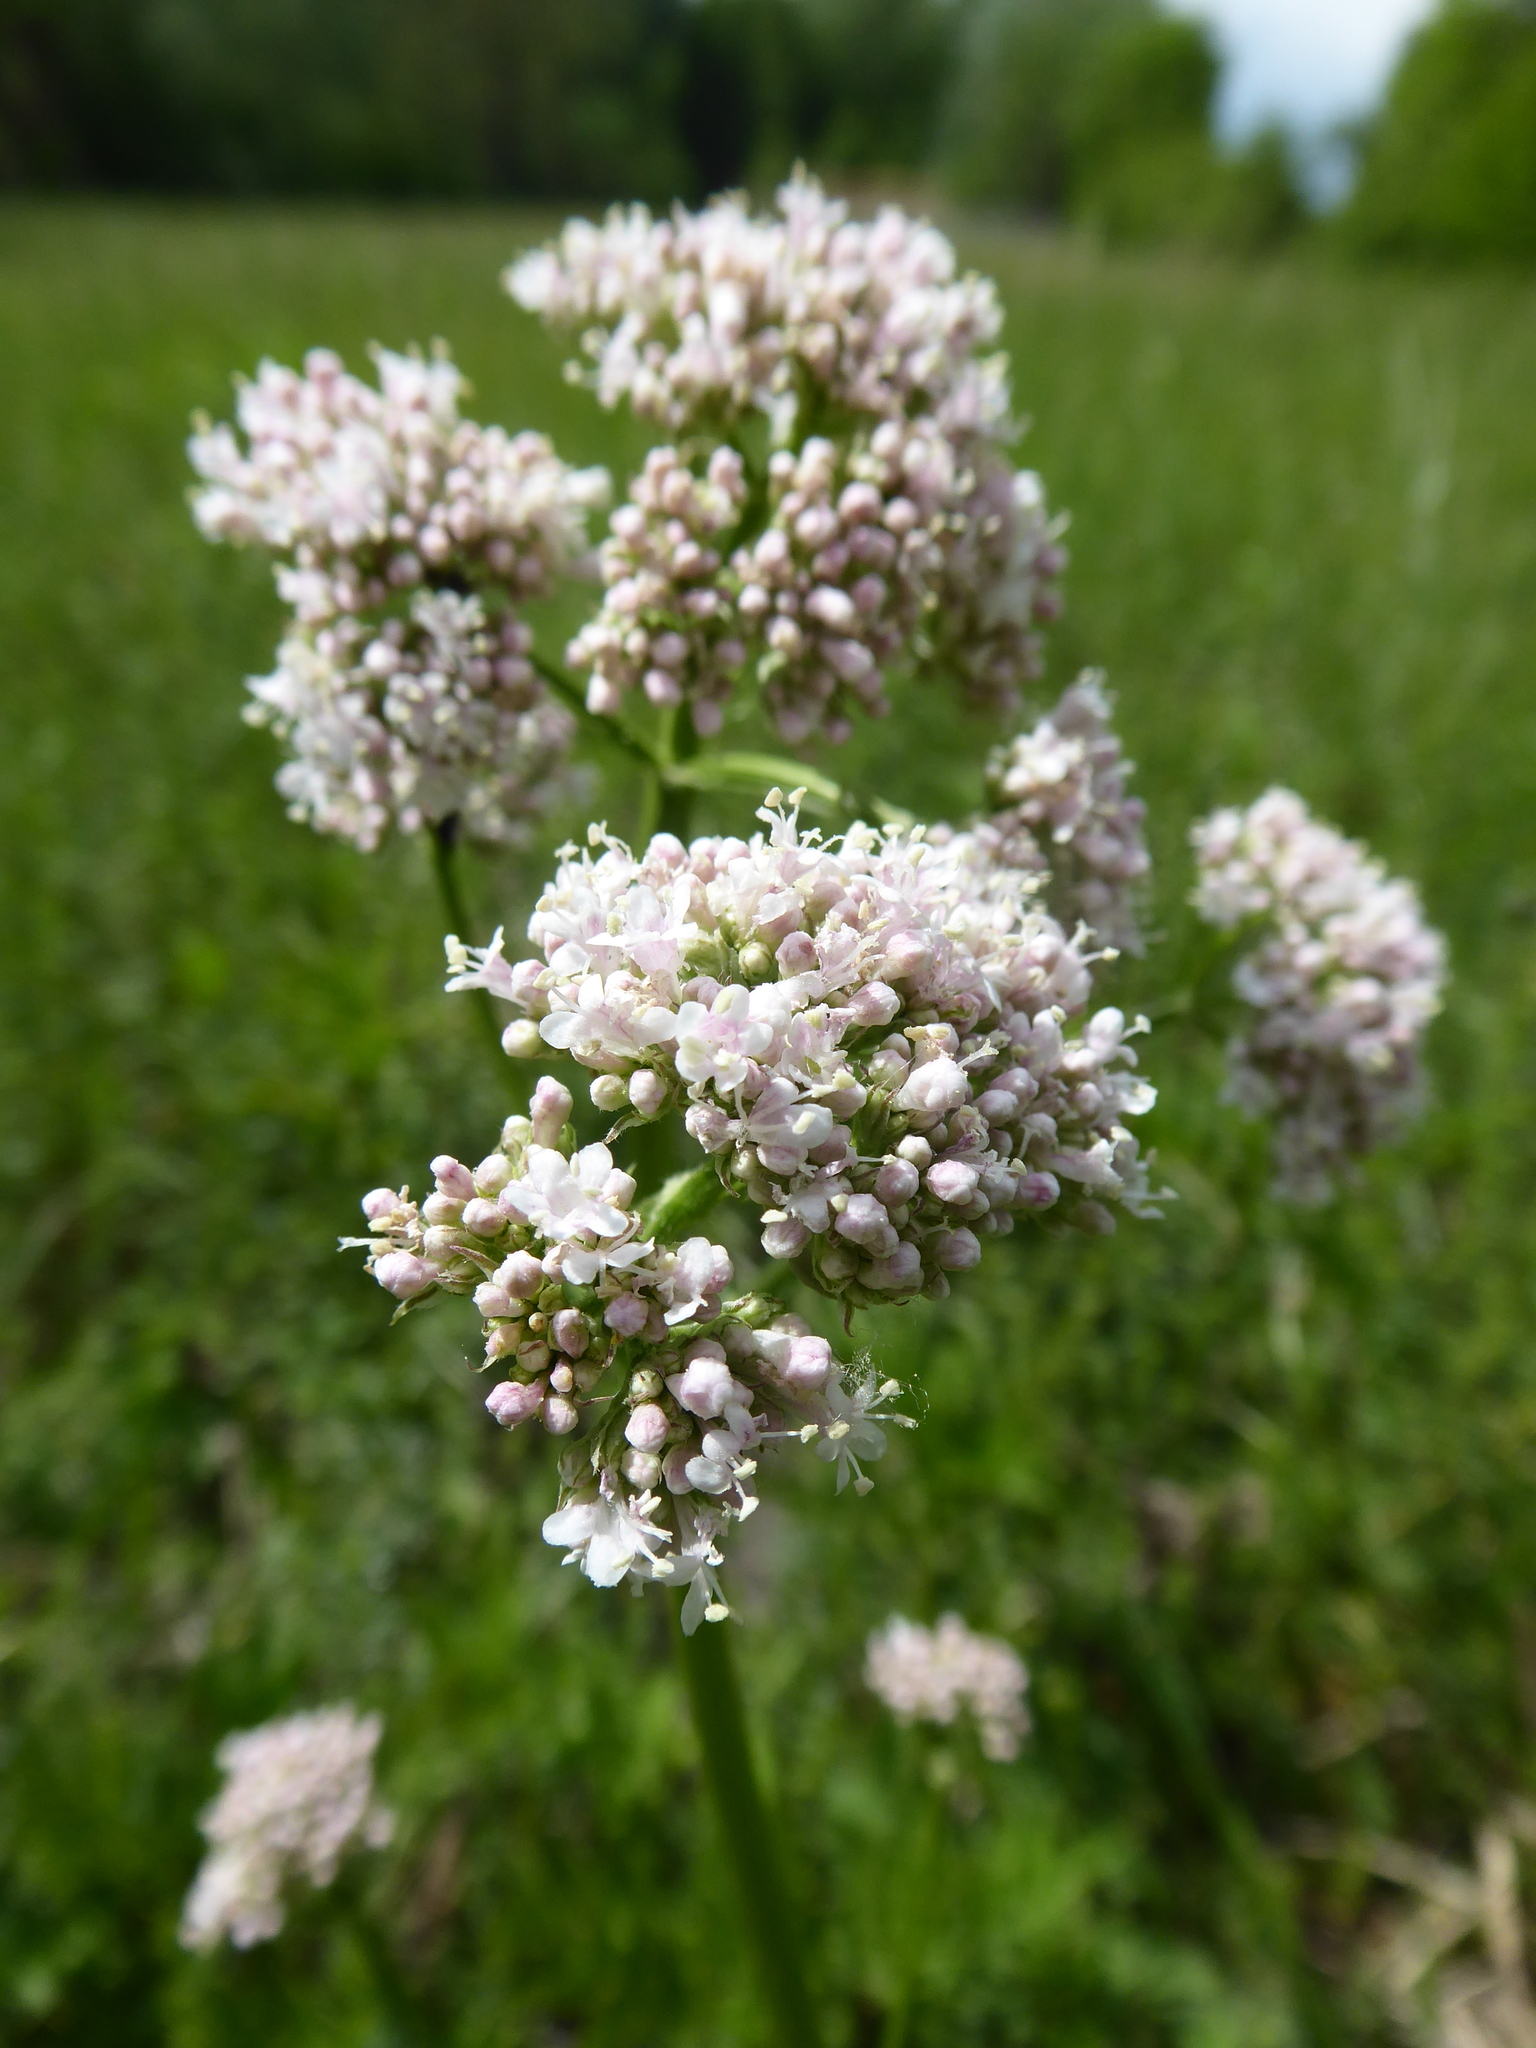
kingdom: Plantae
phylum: Tracheophyta
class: Magnoliopsida
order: Dipsacales
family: Caprifoliaceae
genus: Valeriana
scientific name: Valeriana pratensis
